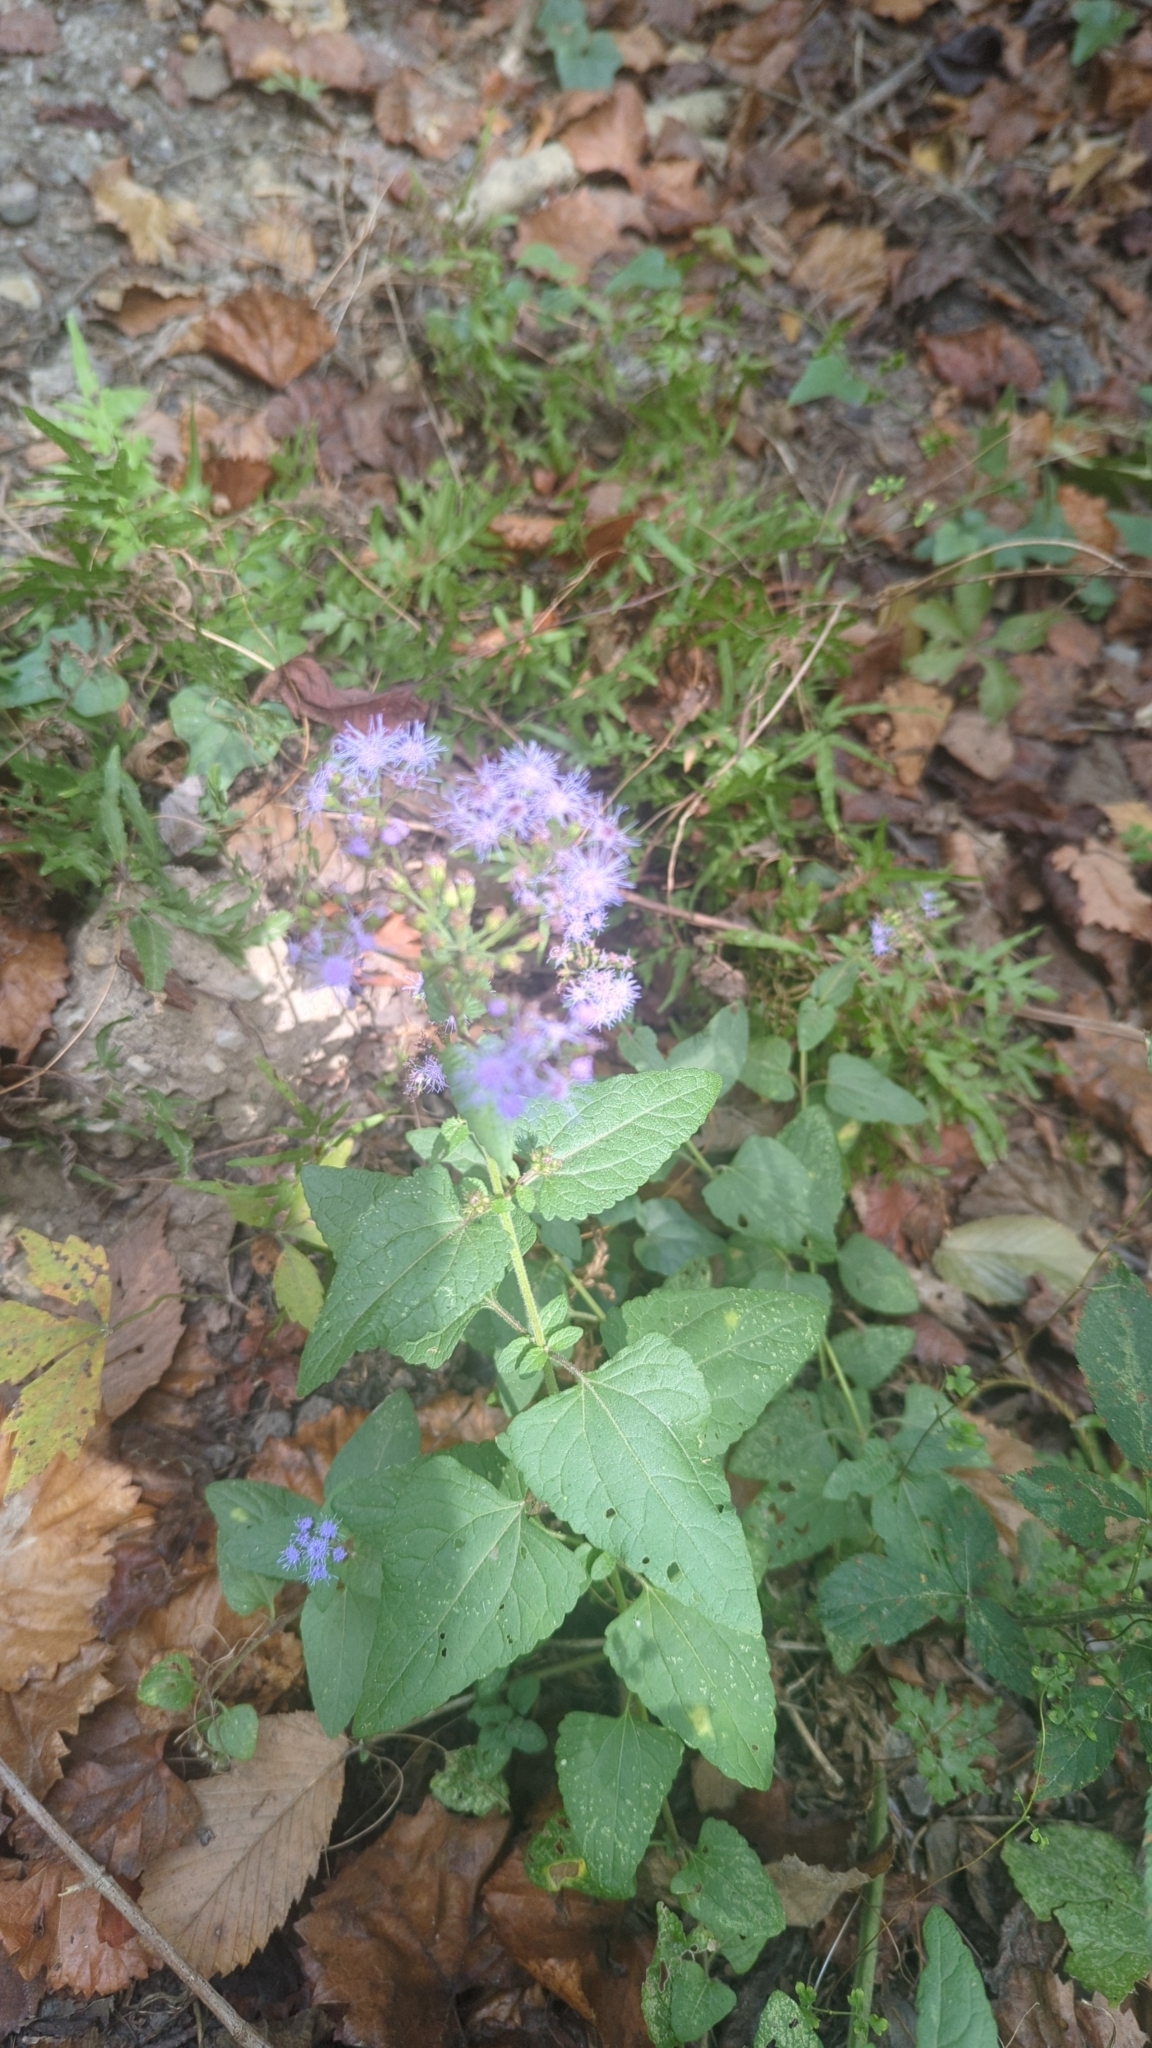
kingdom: Plantae
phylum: Tracheophyta
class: Magnoliopsida
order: Asterales
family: Asteraceae
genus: Conoclinium
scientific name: Conoclinium coelestinum
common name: Blue mistflower
